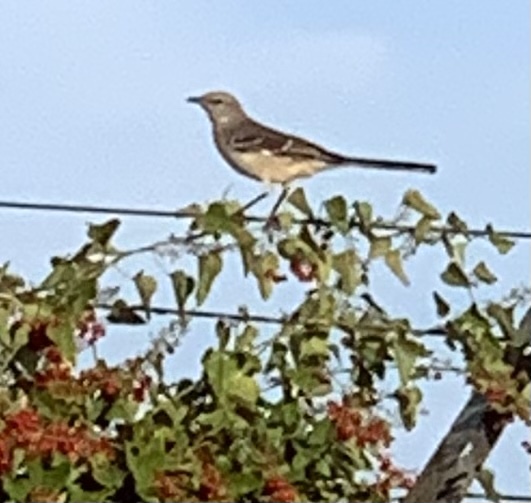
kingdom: Animalia
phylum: Chordata
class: Aves
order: Passeriformes
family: Mimidae
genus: Mimus
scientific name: Mimus polyglottos
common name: Northern mockingbird
